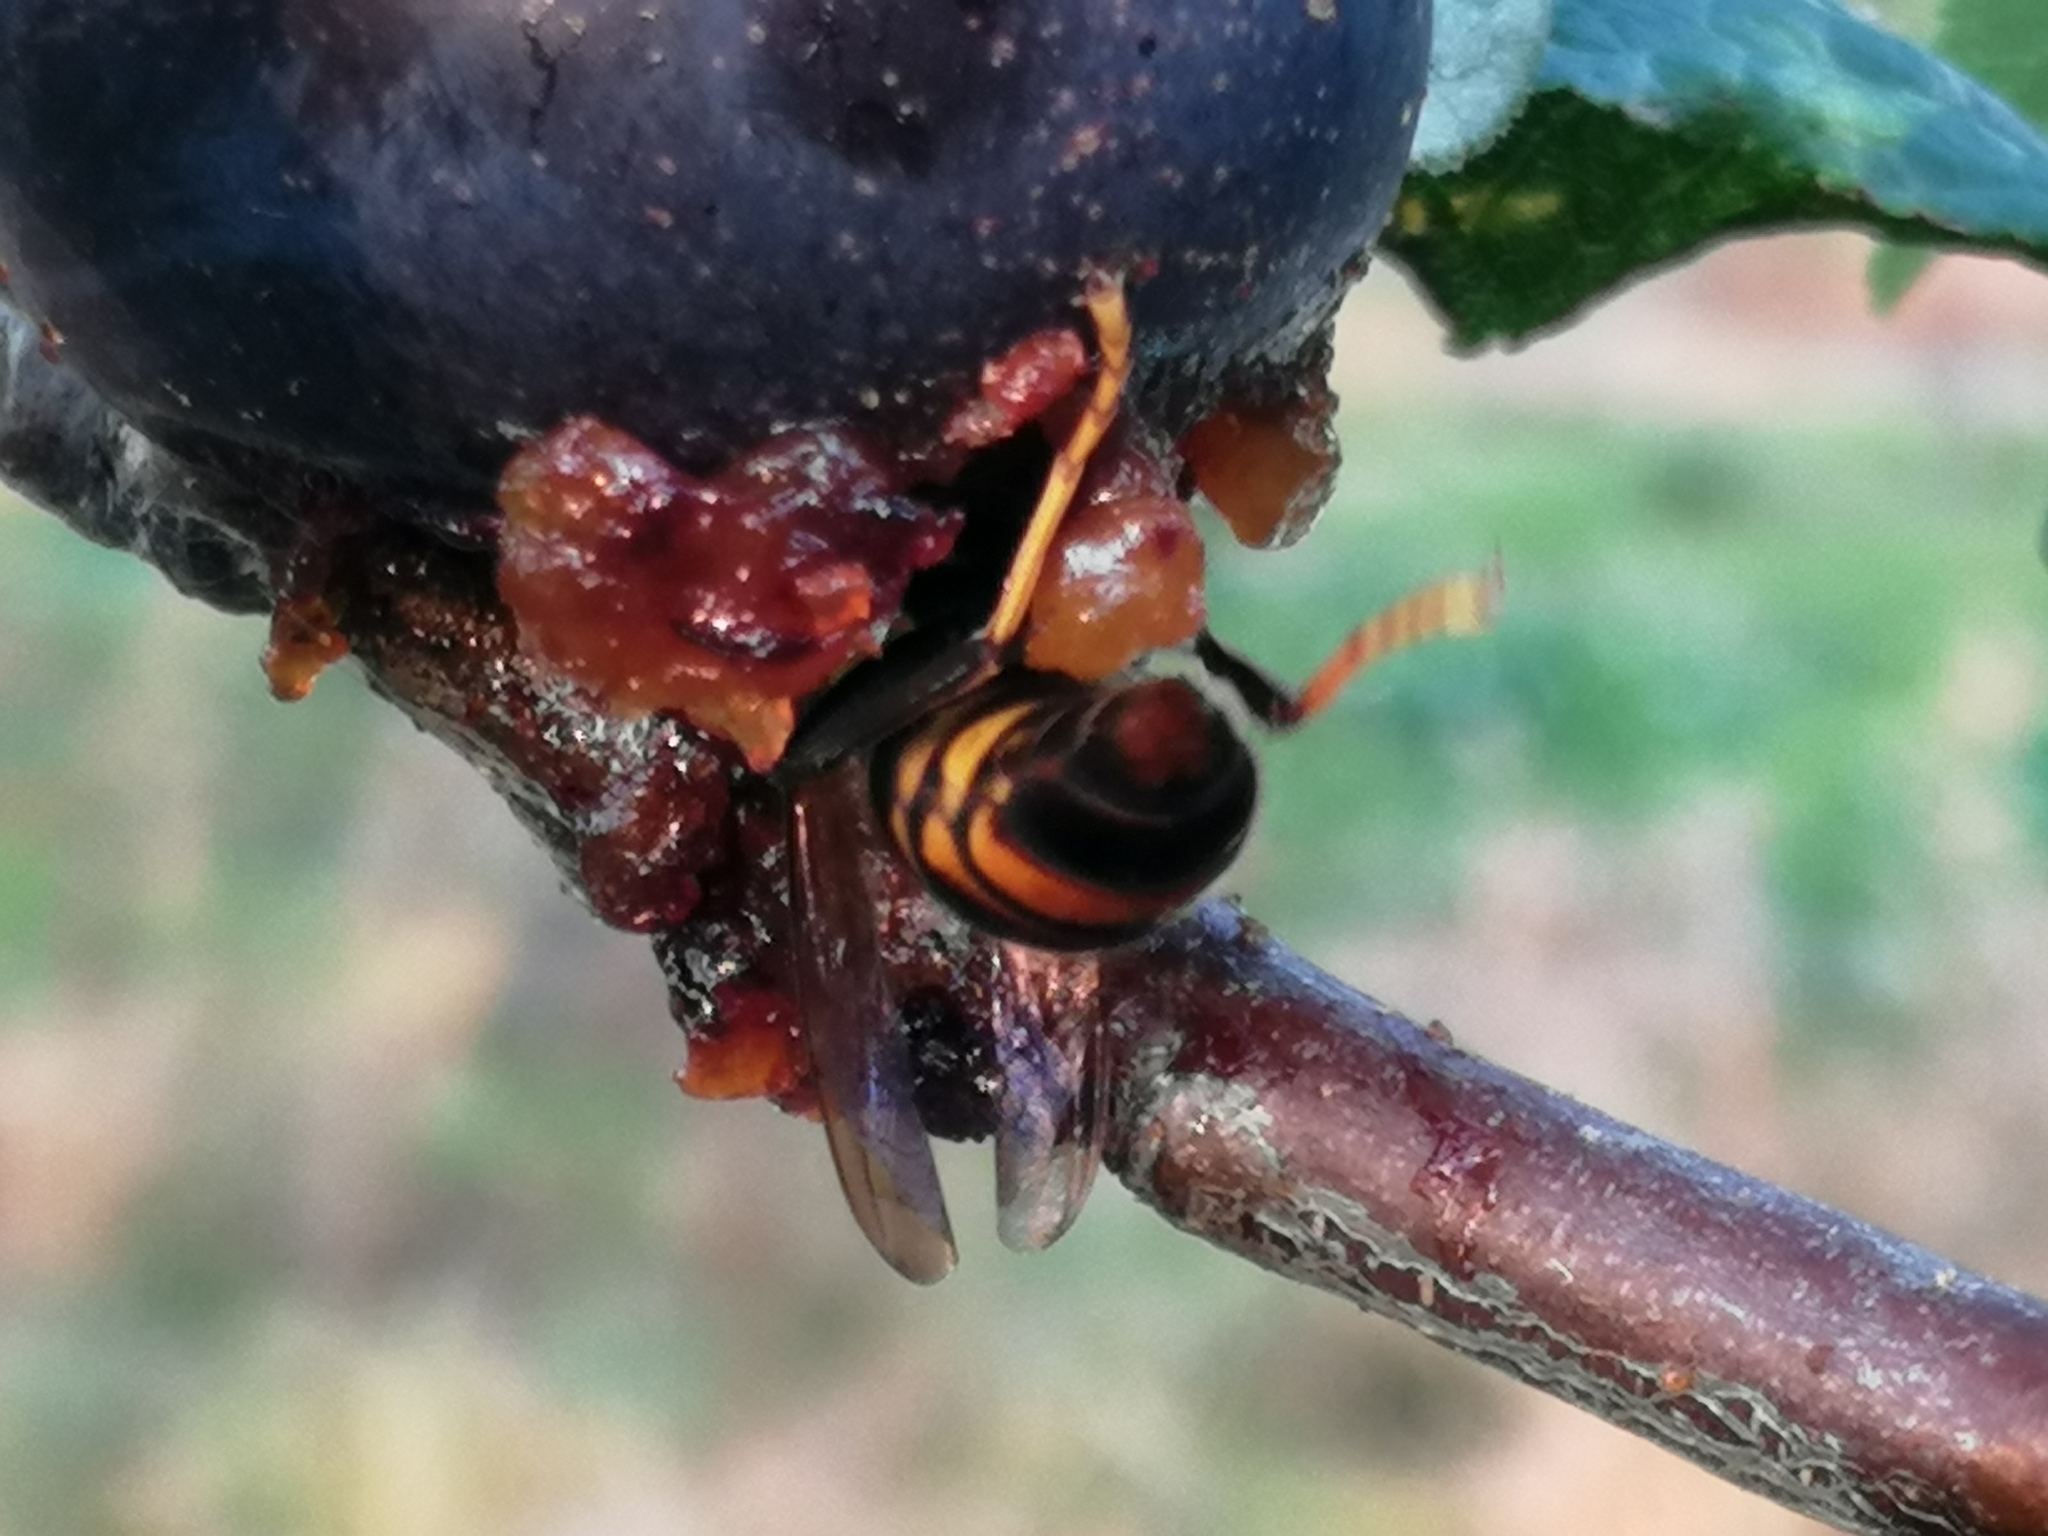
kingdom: Animalia
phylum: Arthropoda
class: Insecta
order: Hymenoptera
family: Vespidae
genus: Vespa
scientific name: Vespa velutina
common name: Asian hornet
